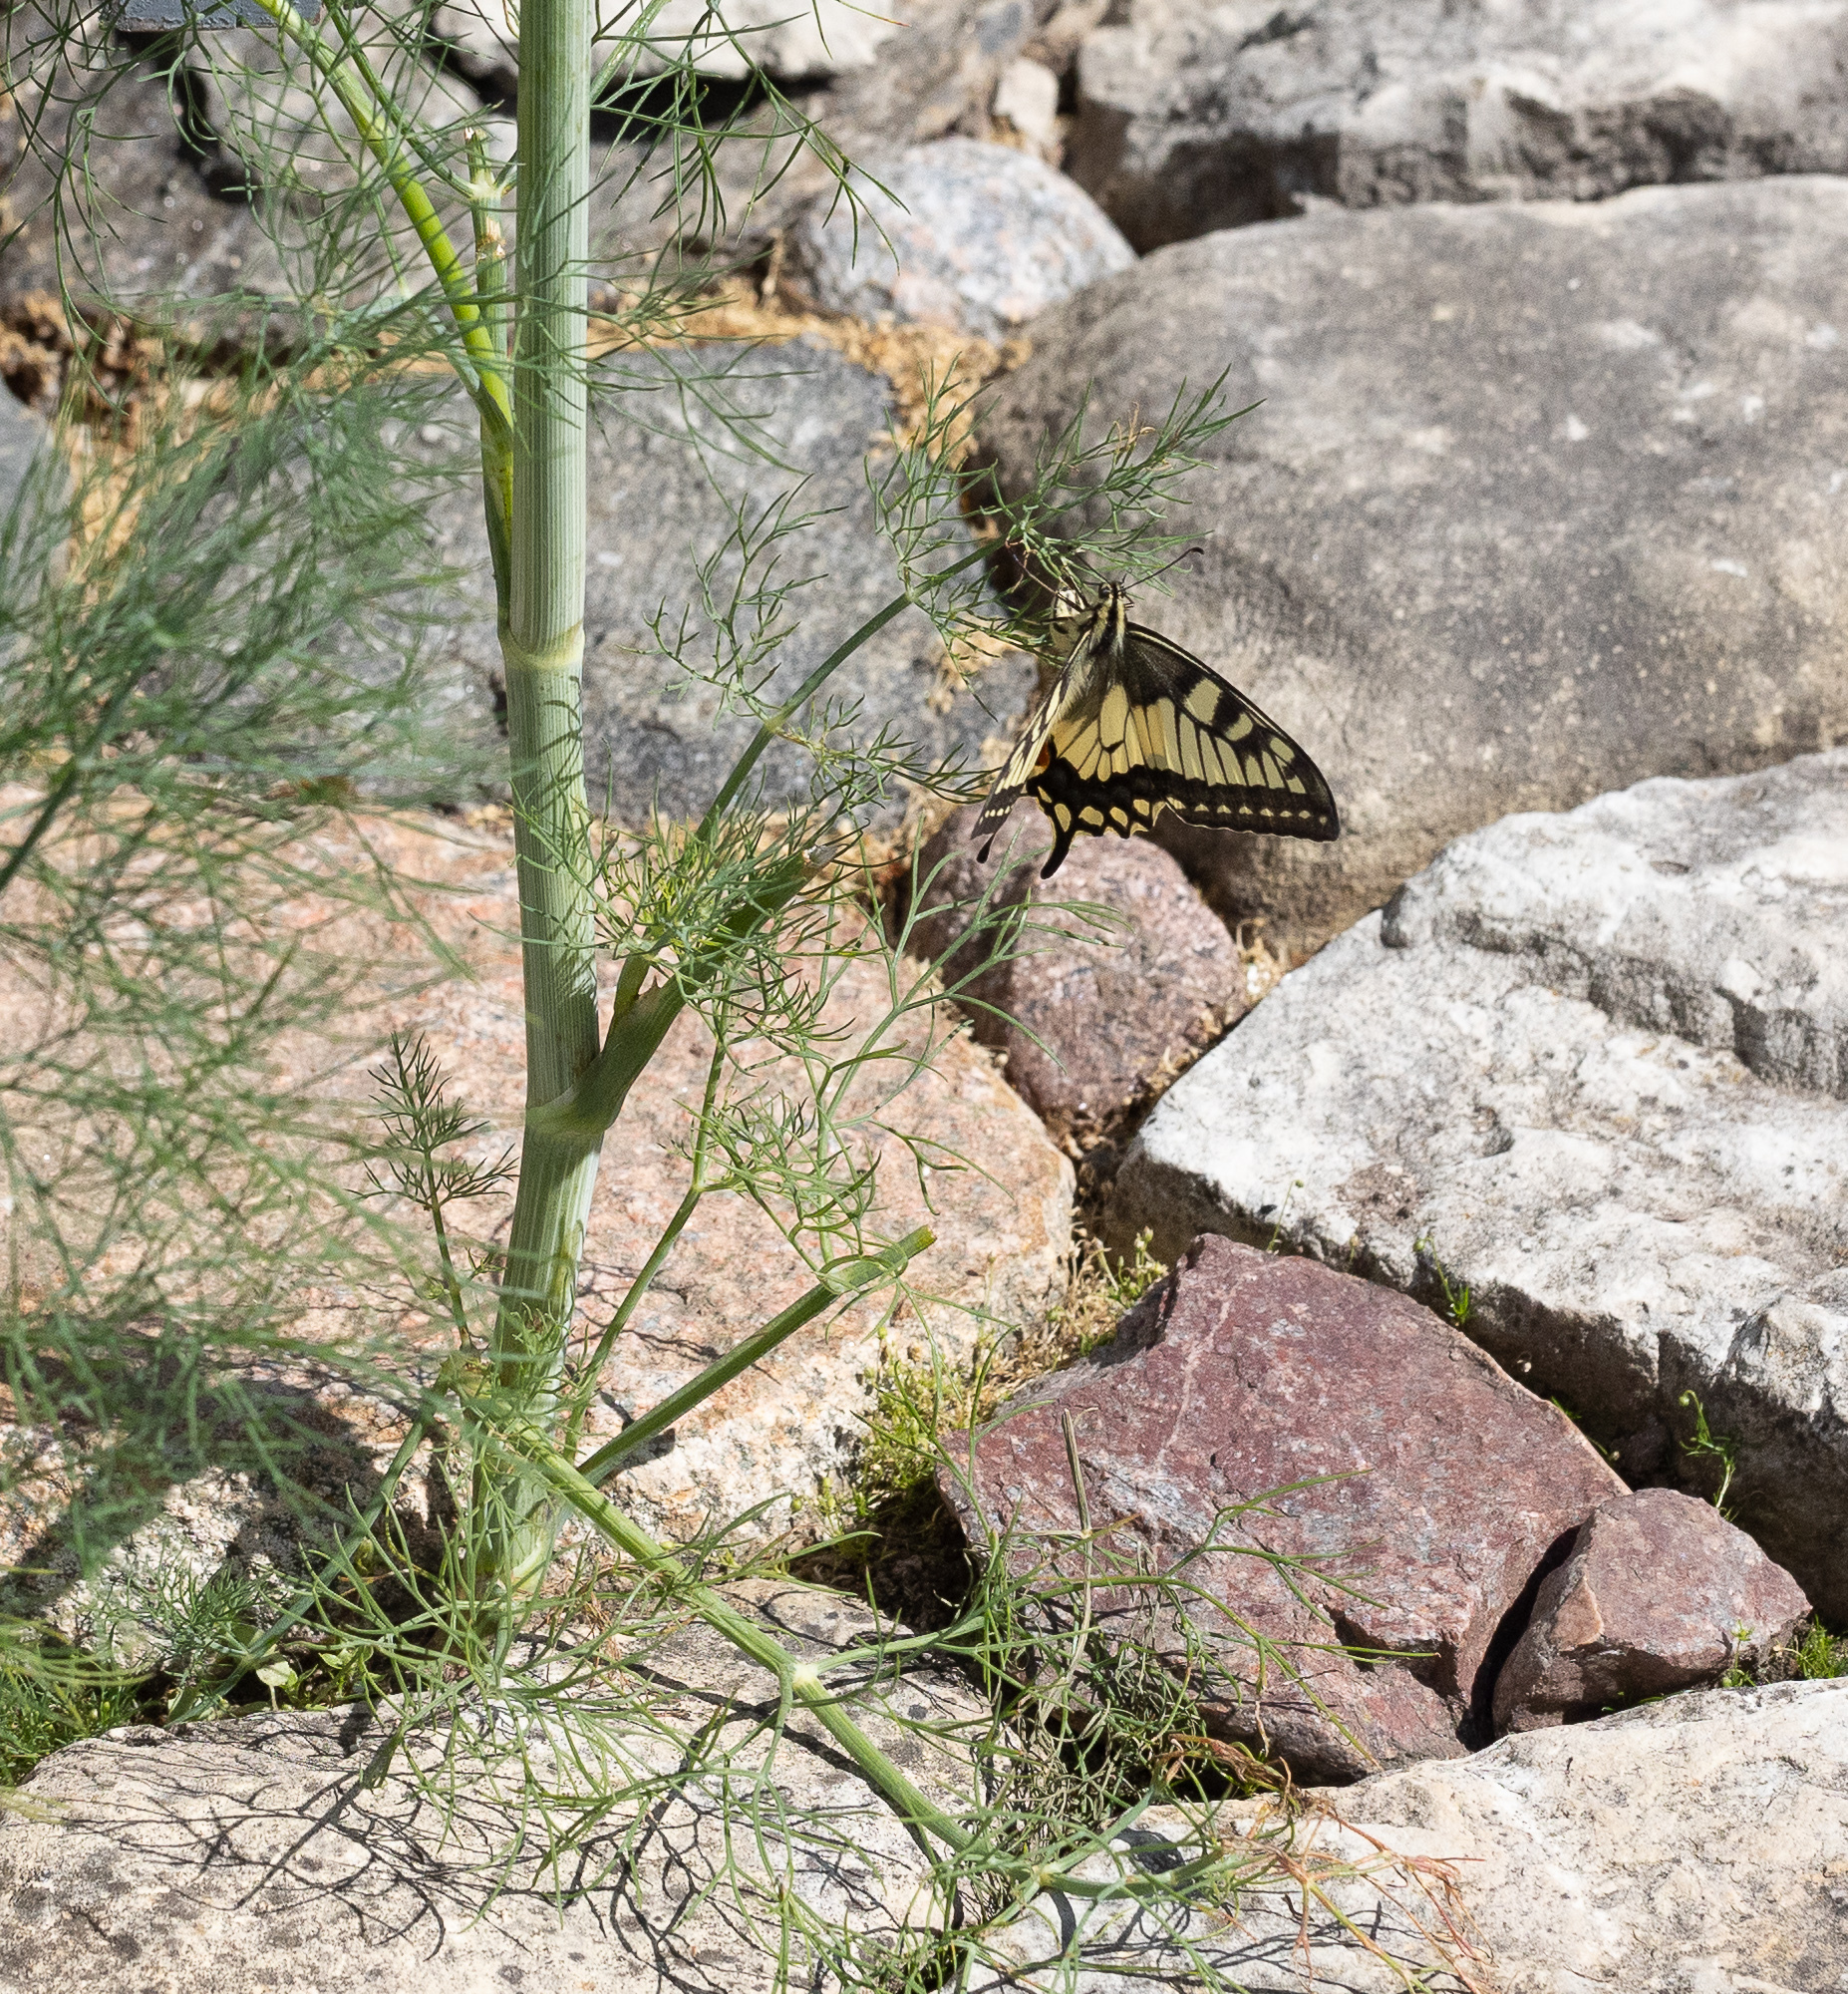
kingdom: Animalia
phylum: Arthropoda
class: Insecta
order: Lepidoptera
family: Papilionidae
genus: Papilio
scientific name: Papilio machaon
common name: Swallowtail
